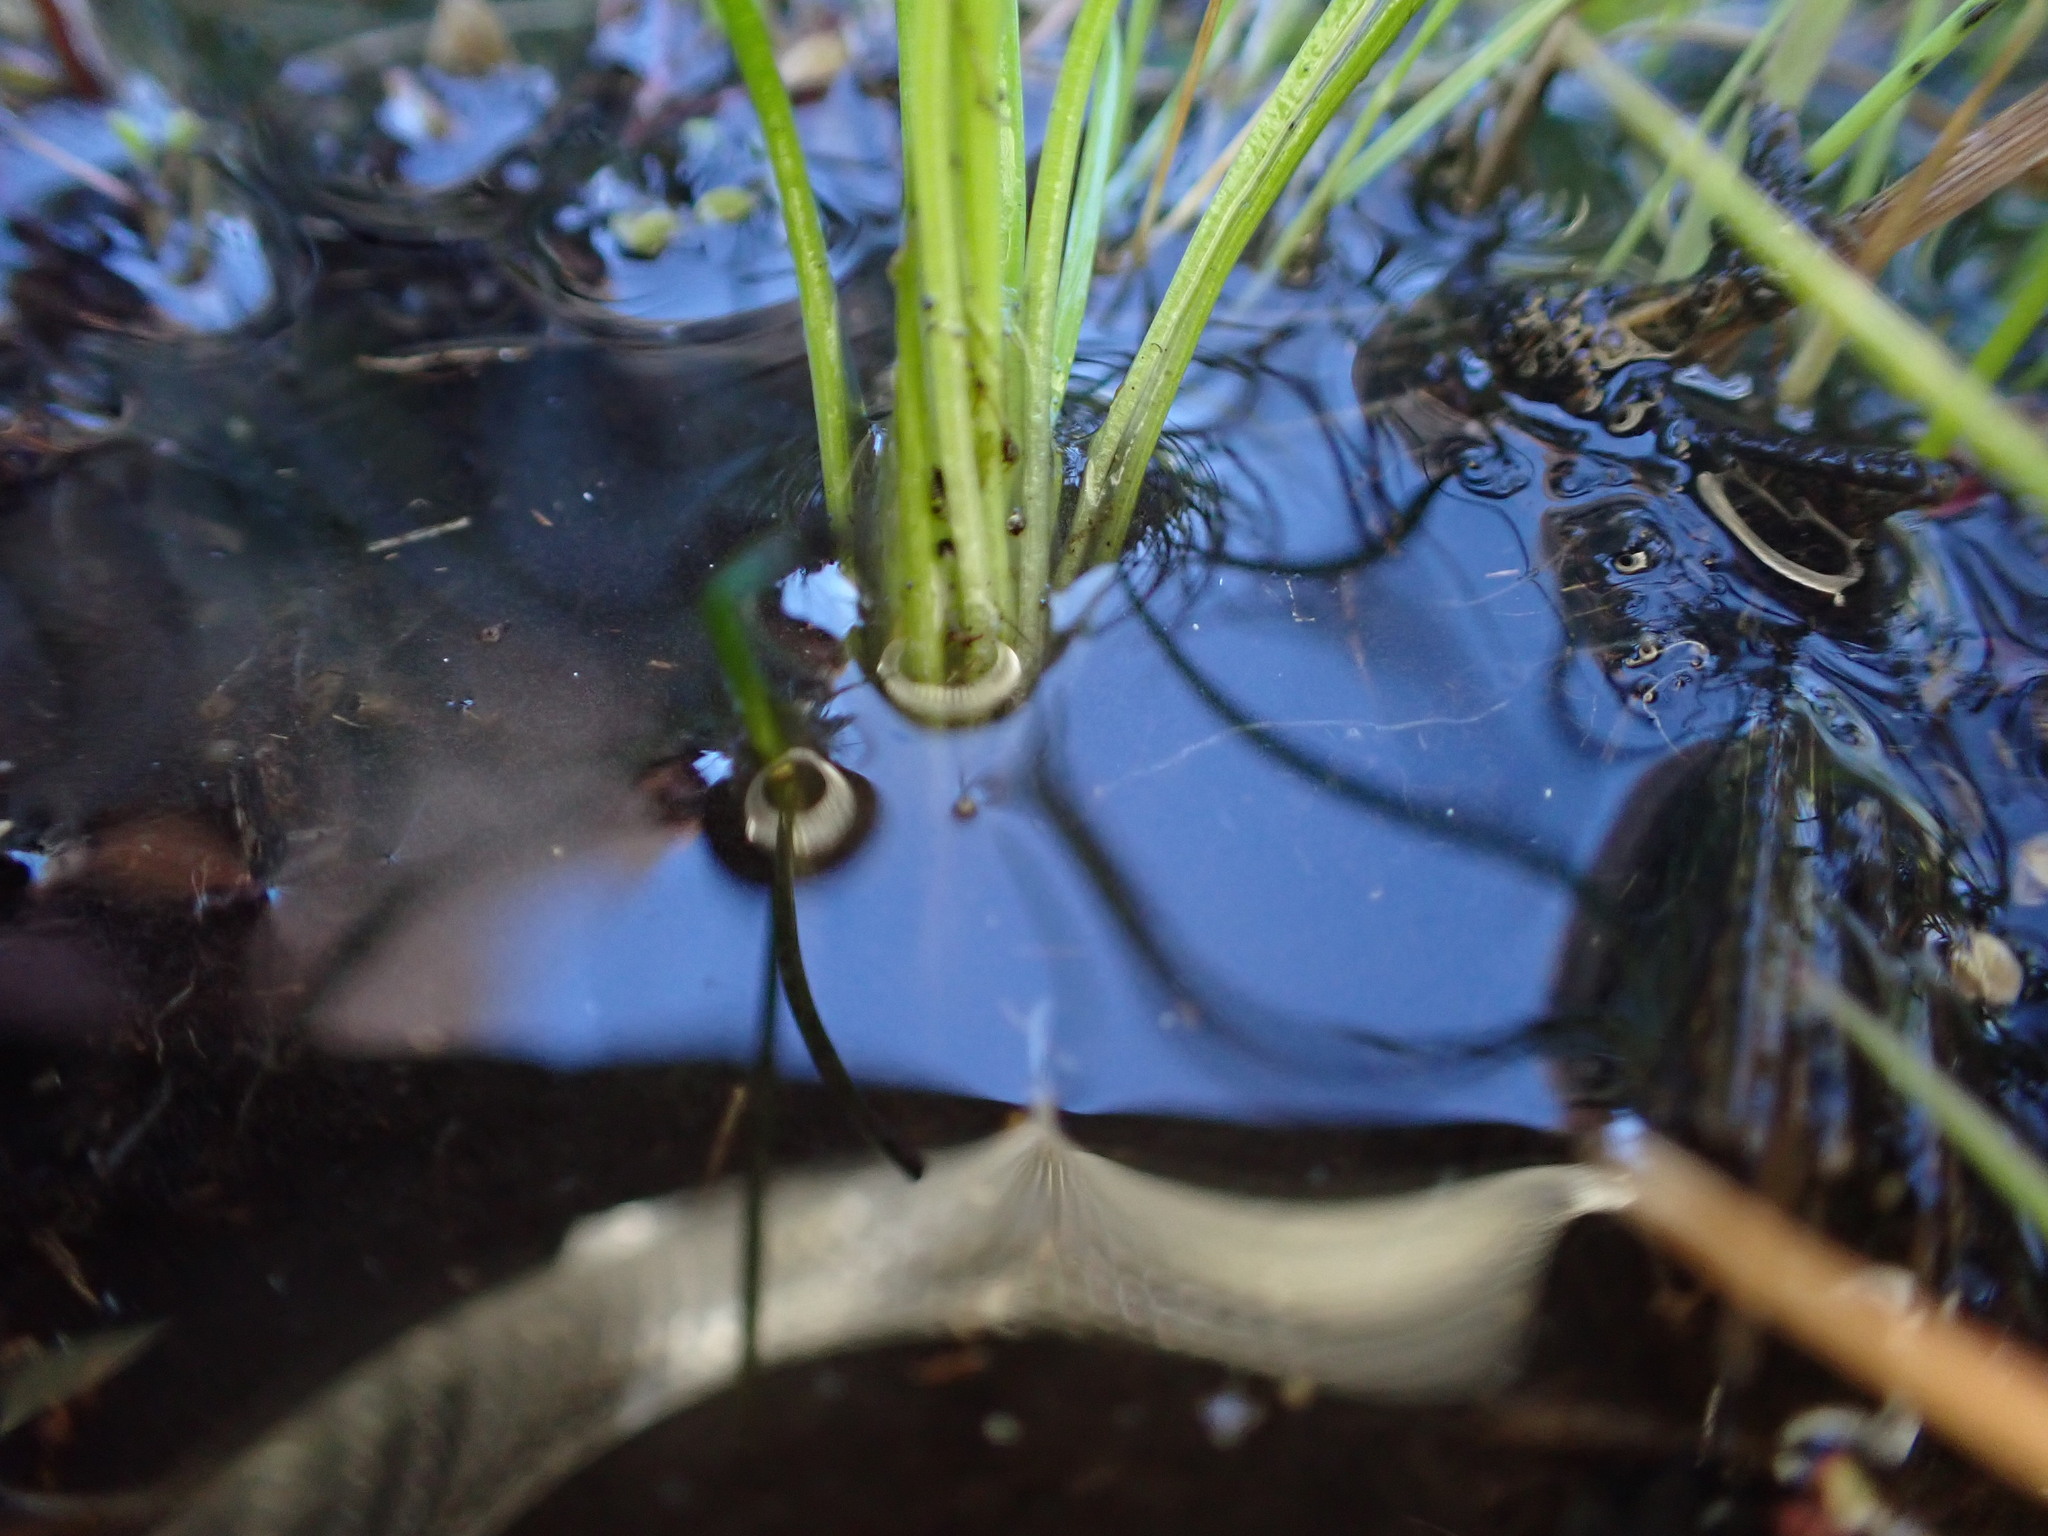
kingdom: Plantae
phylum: Tracheophyta
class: Lycopodiopsida
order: Isoetales
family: Isoetaceae
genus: Isoetes
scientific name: Isoetes nuttallii
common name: Nuttall's quillwort
